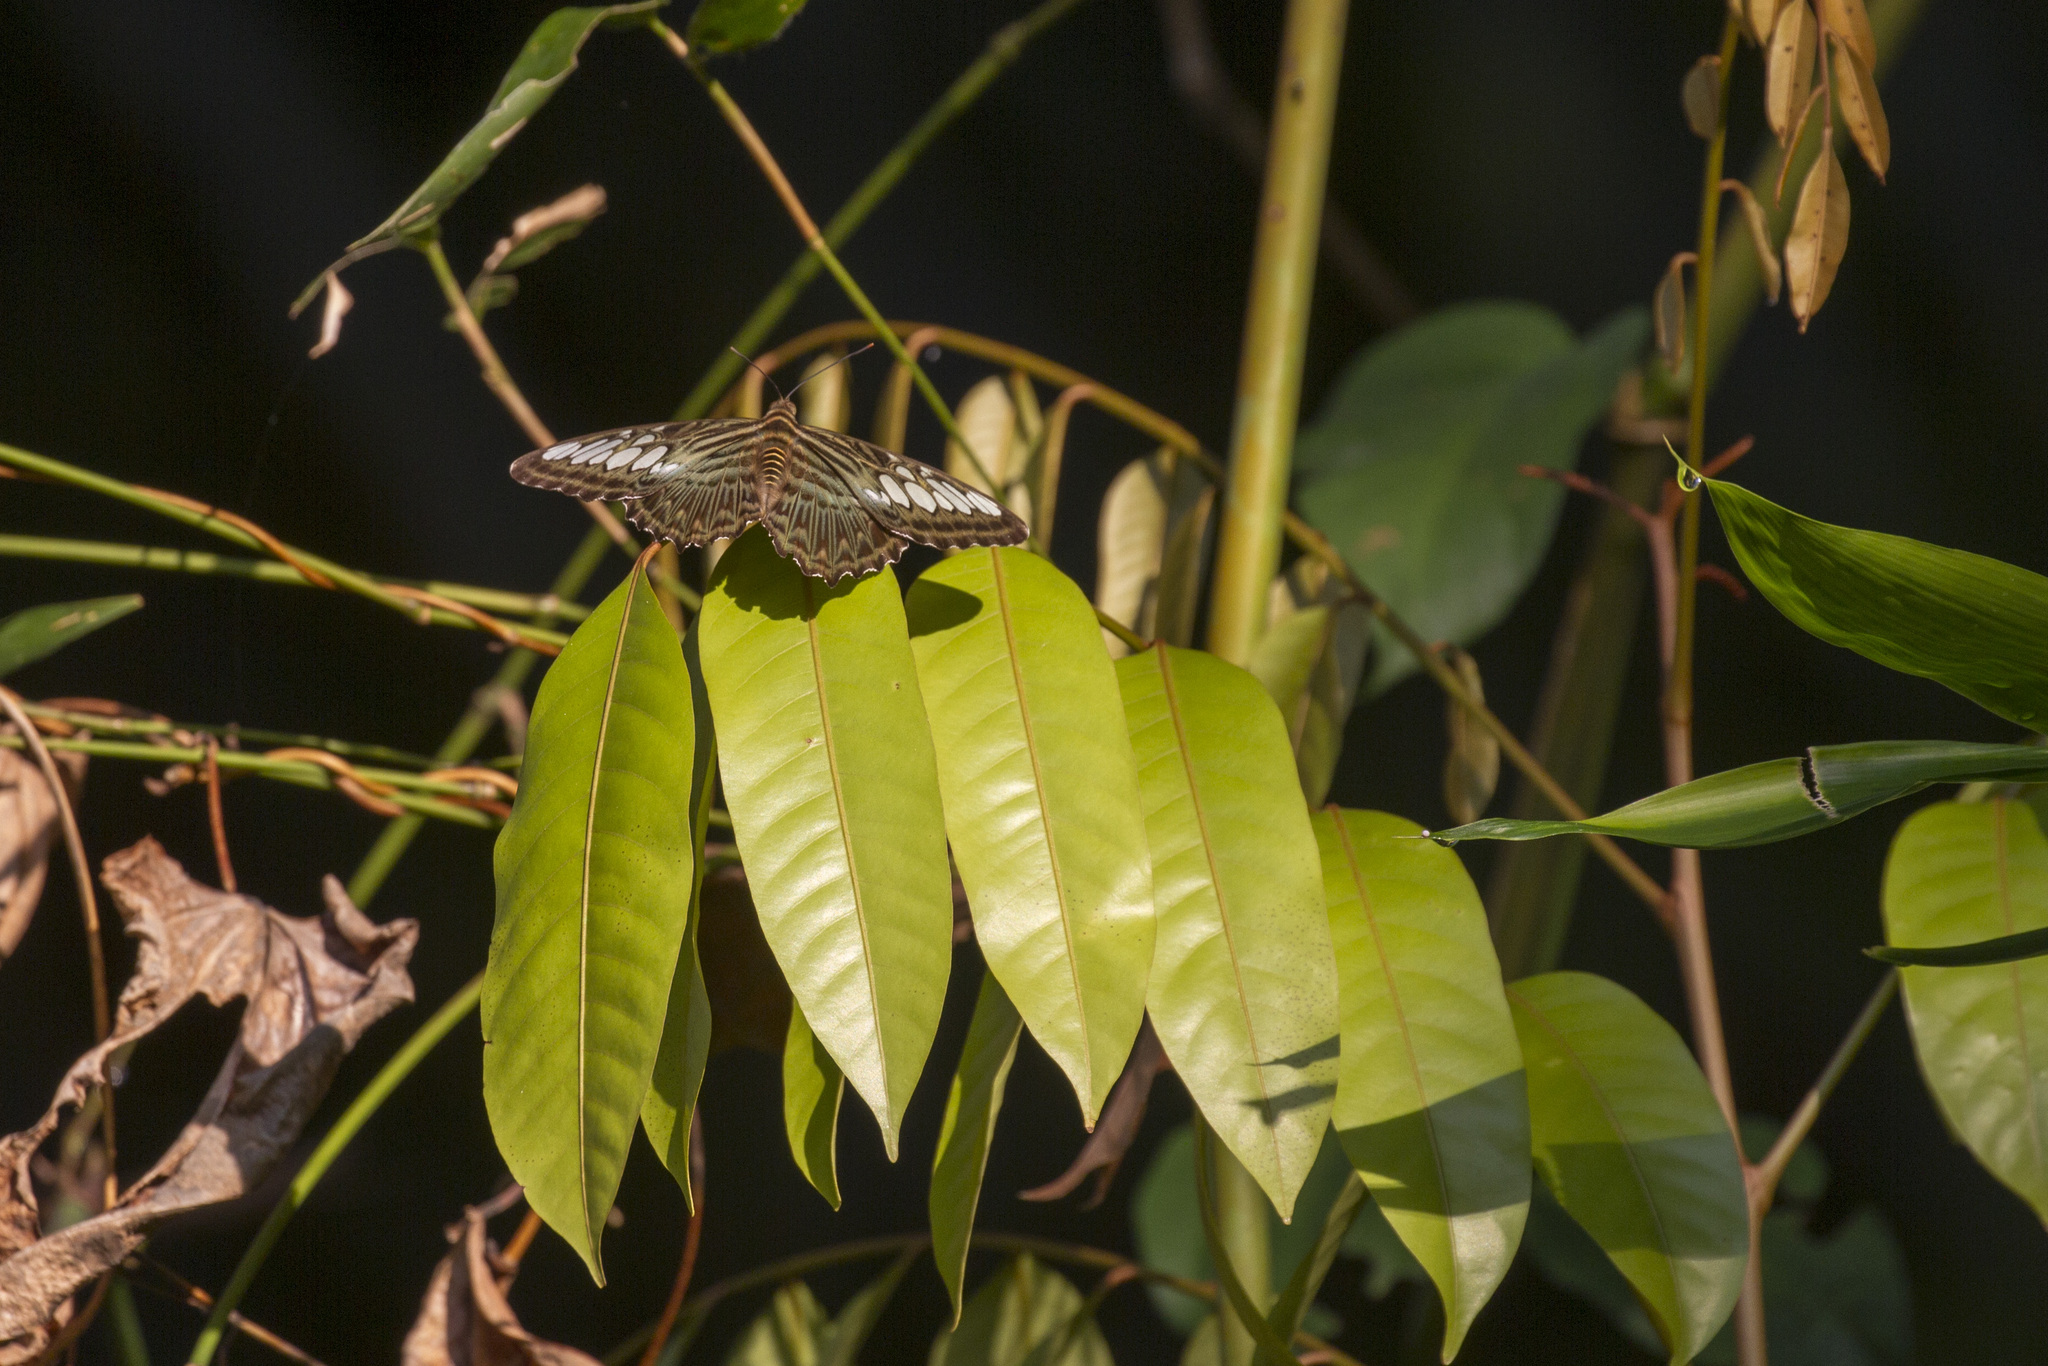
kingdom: Animalia
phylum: Arthropoda
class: Insecta
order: Lepidoptera
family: Nymphalidae
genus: Kallima
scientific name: Kallima sylvia
